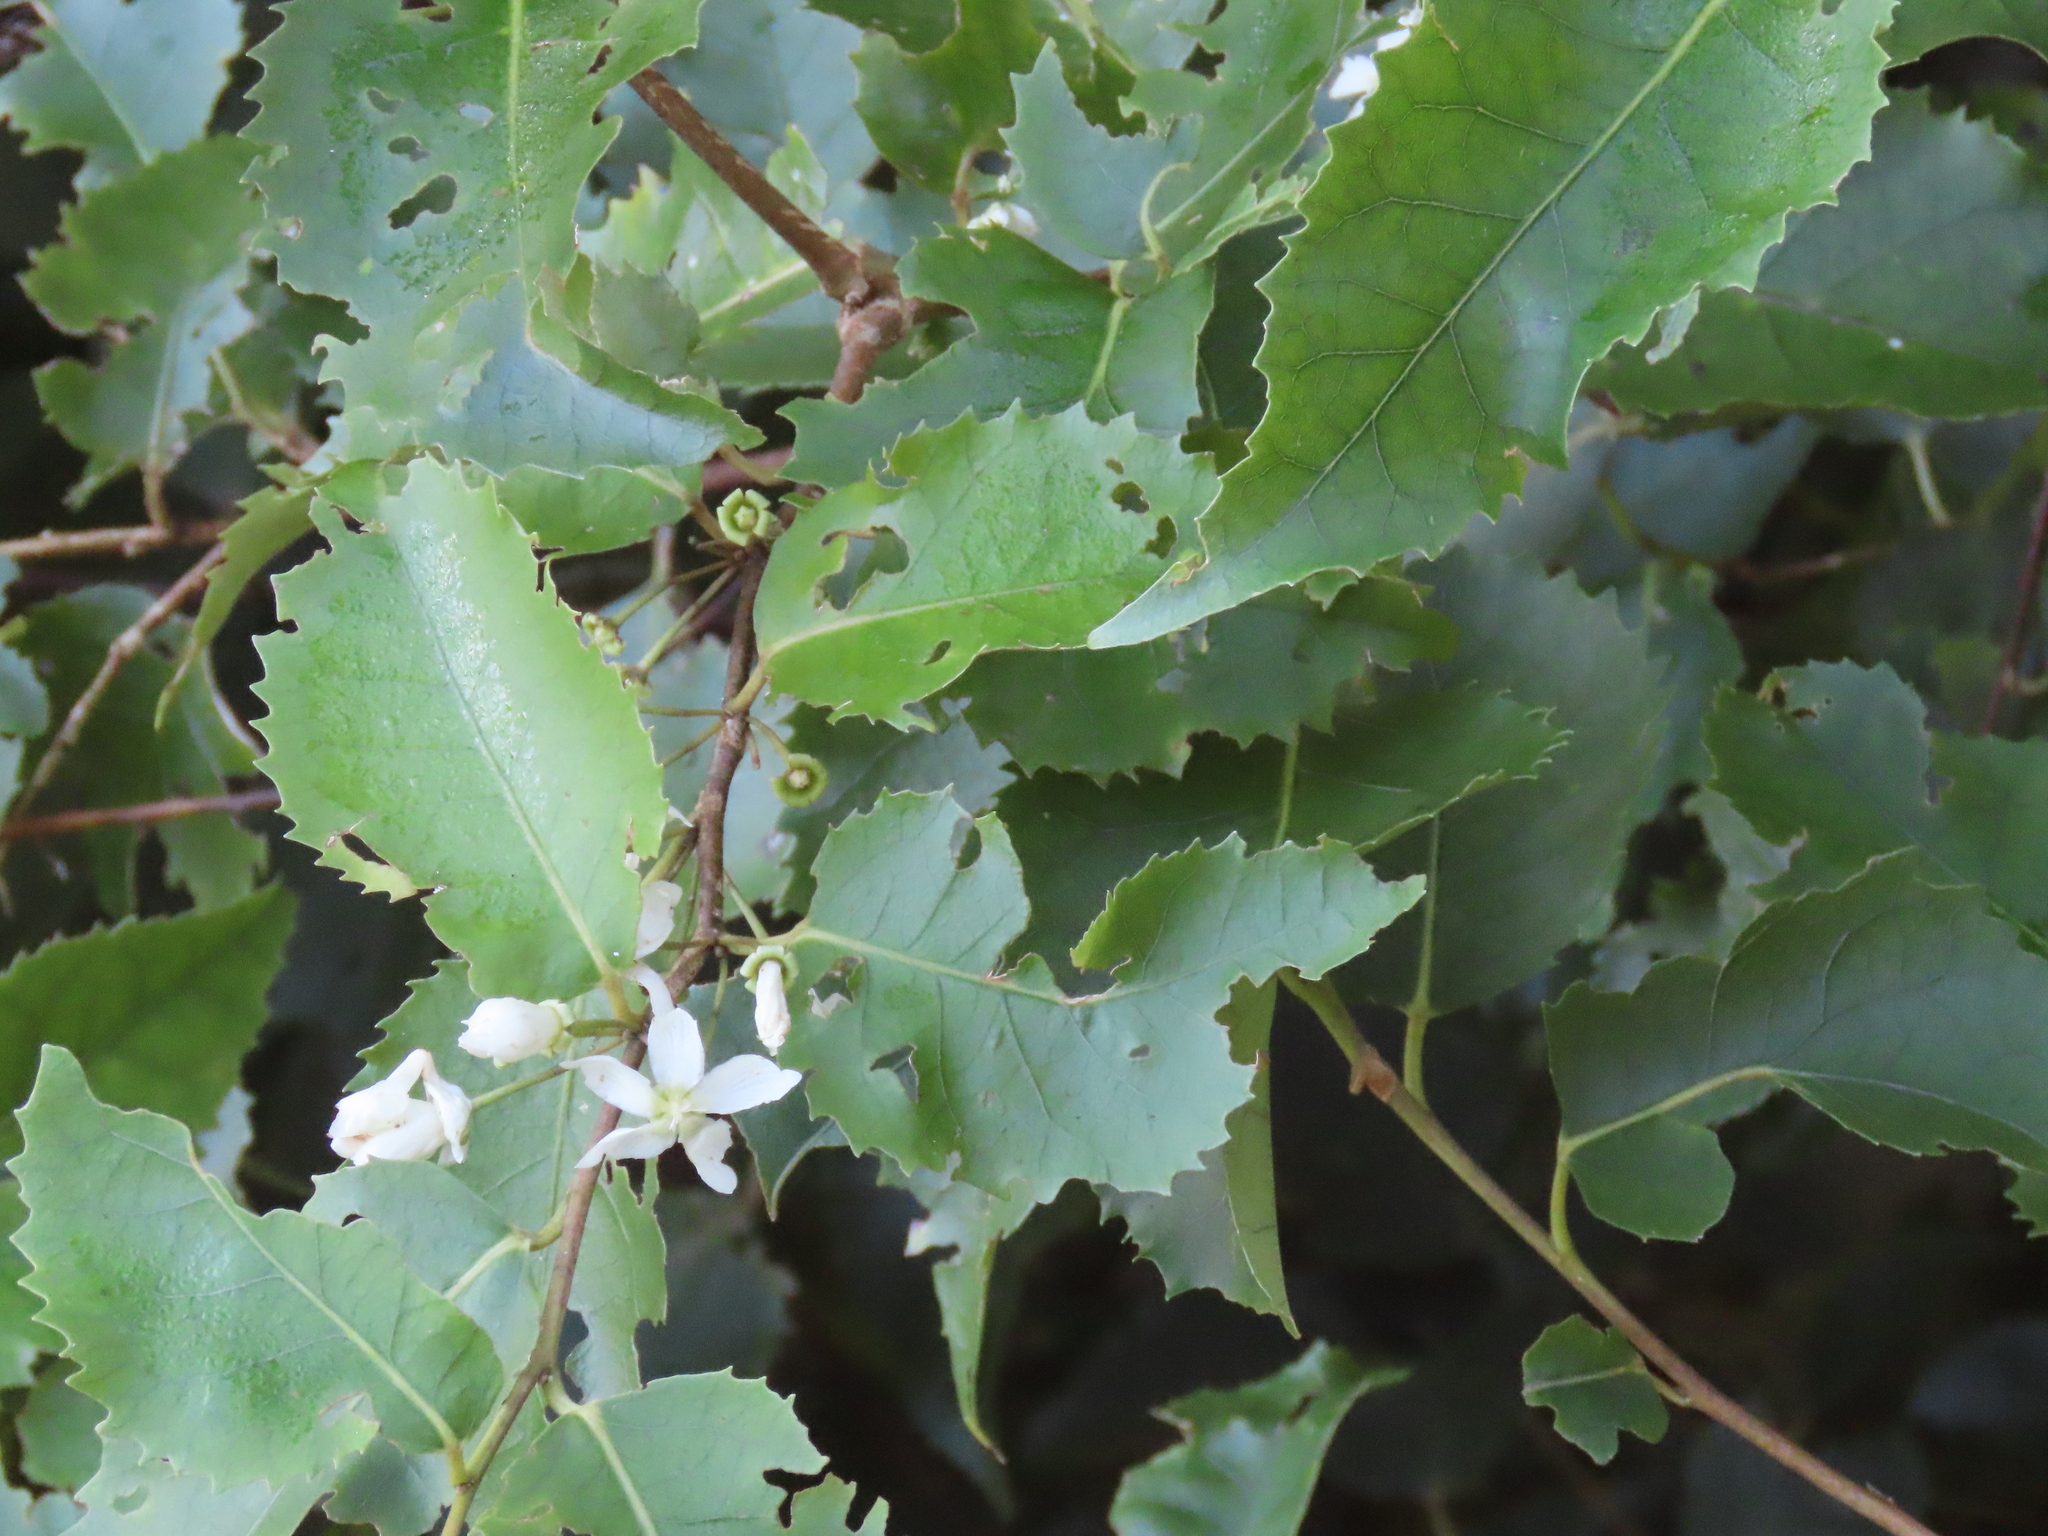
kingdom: Plantae
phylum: Tracheophyta
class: Magnoliopsida
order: Malvales
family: Malvaceae
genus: Hoheria
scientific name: Hoheria populnea
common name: Lacebark
